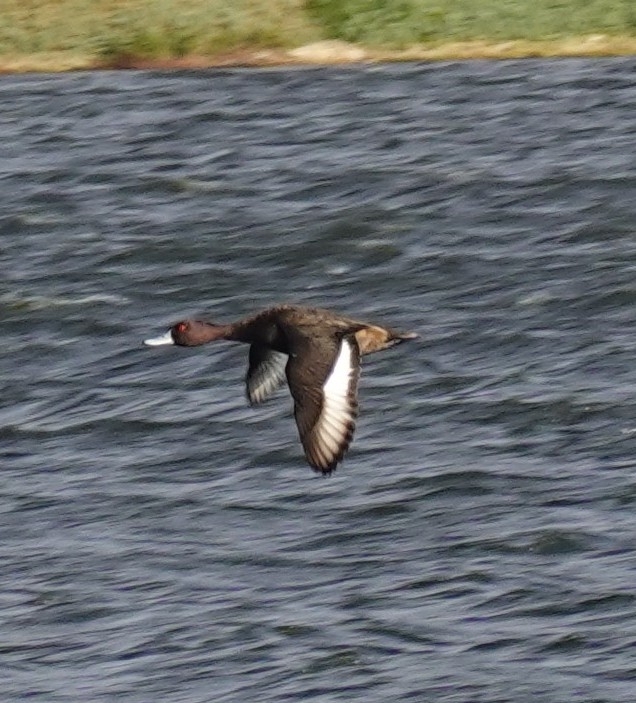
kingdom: Animalia
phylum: Chordata
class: Aves
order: Anseriformes
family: Anatidae
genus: Netta
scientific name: Netta erythrophthalma
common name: Southern pochard
